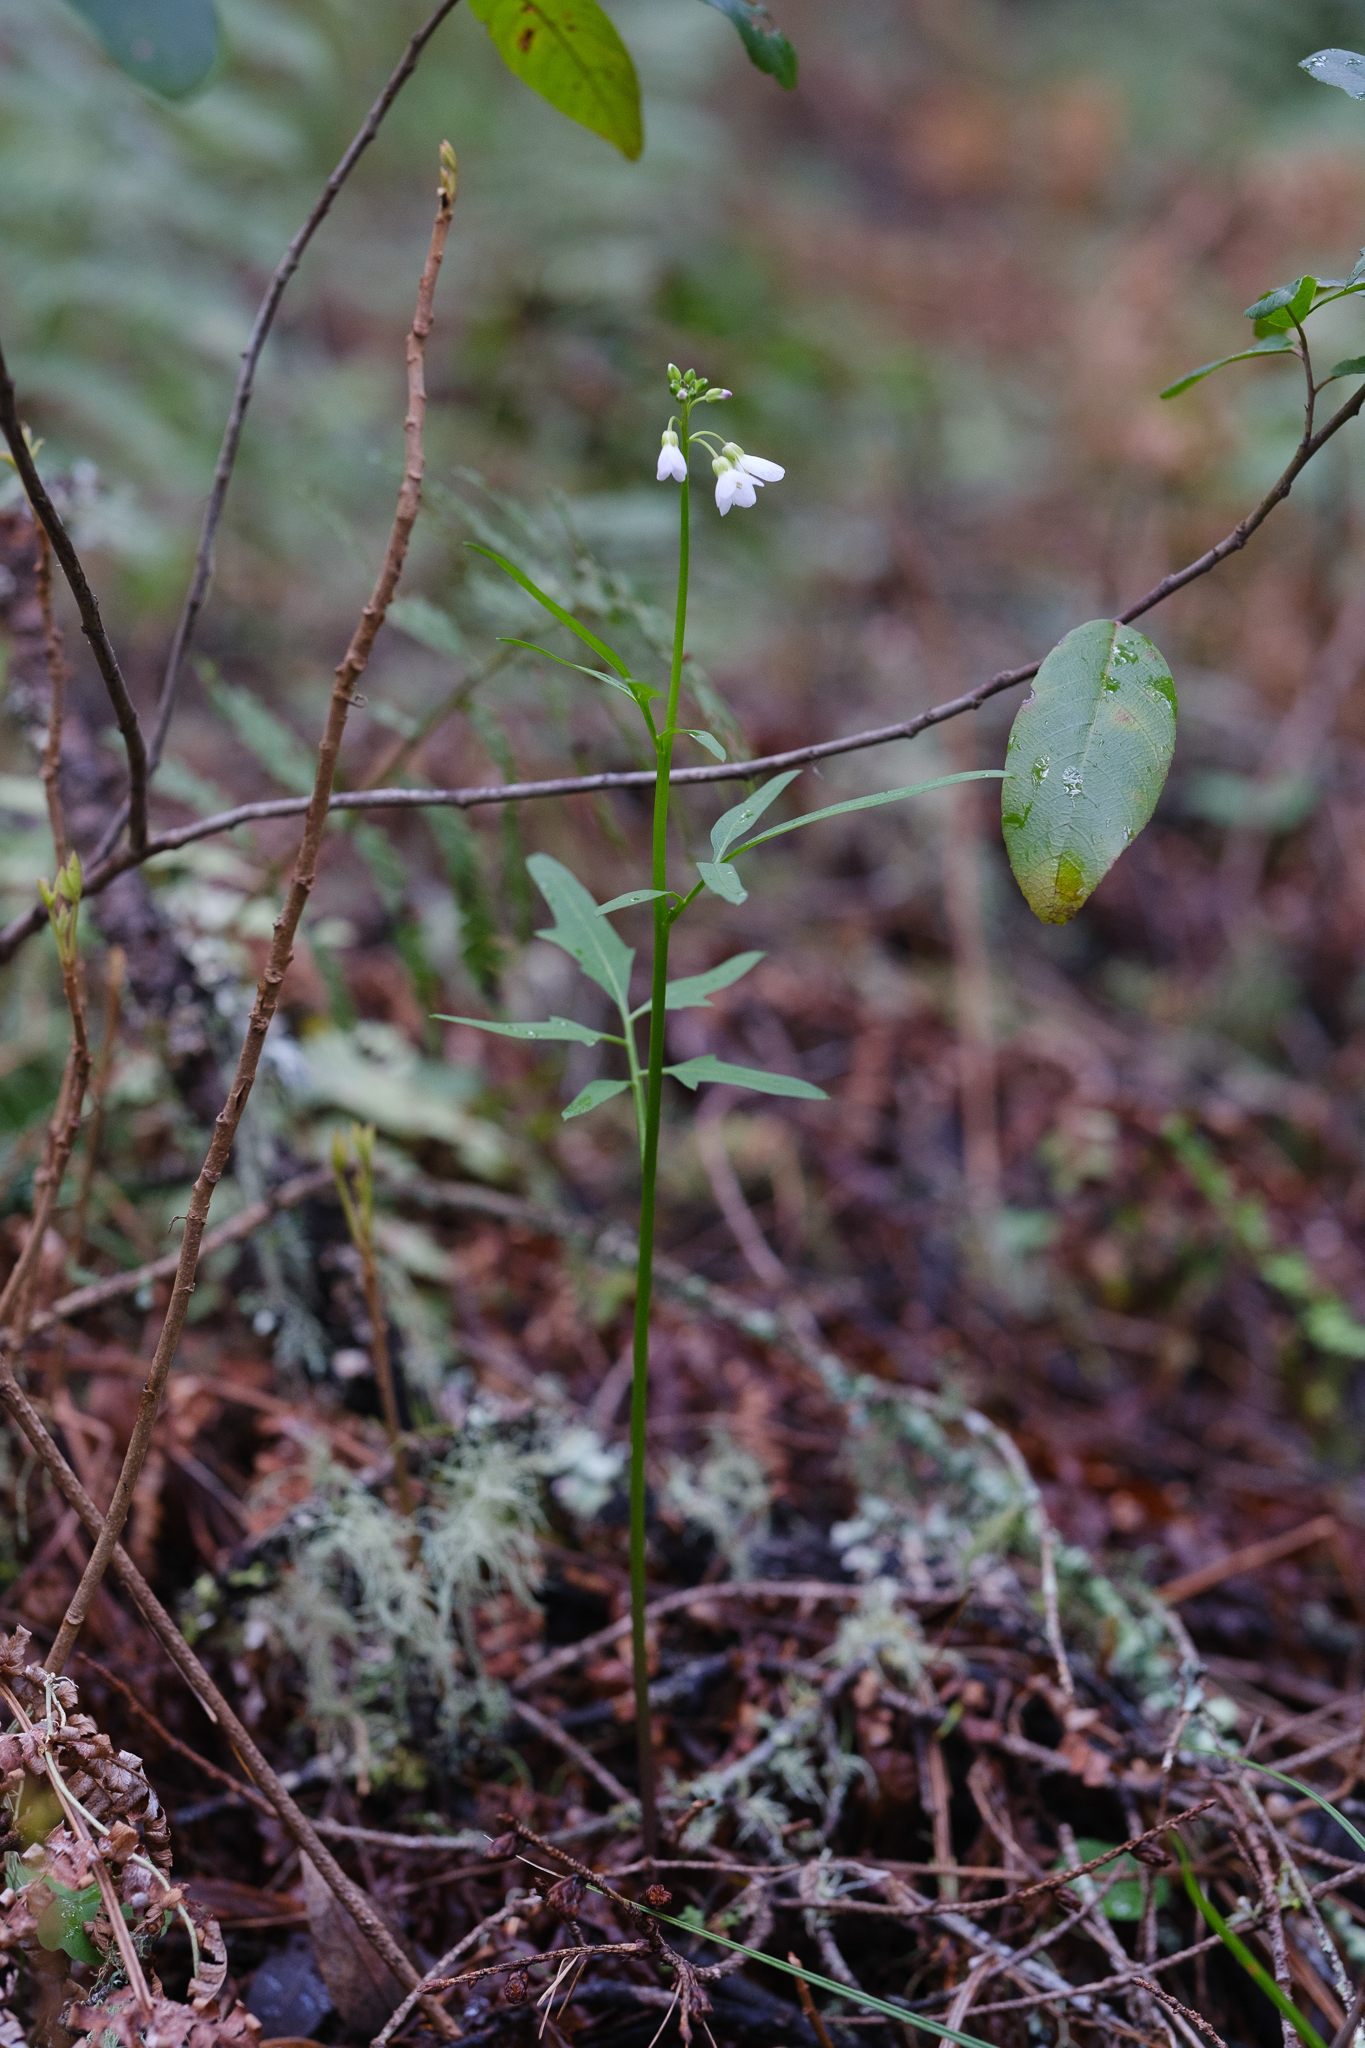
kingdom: Plantae
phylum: Tracheophyta
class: Magnoliopsida
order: Brassicales
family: Brassicaceae
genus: Cardamine
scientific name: Cardamine californica
